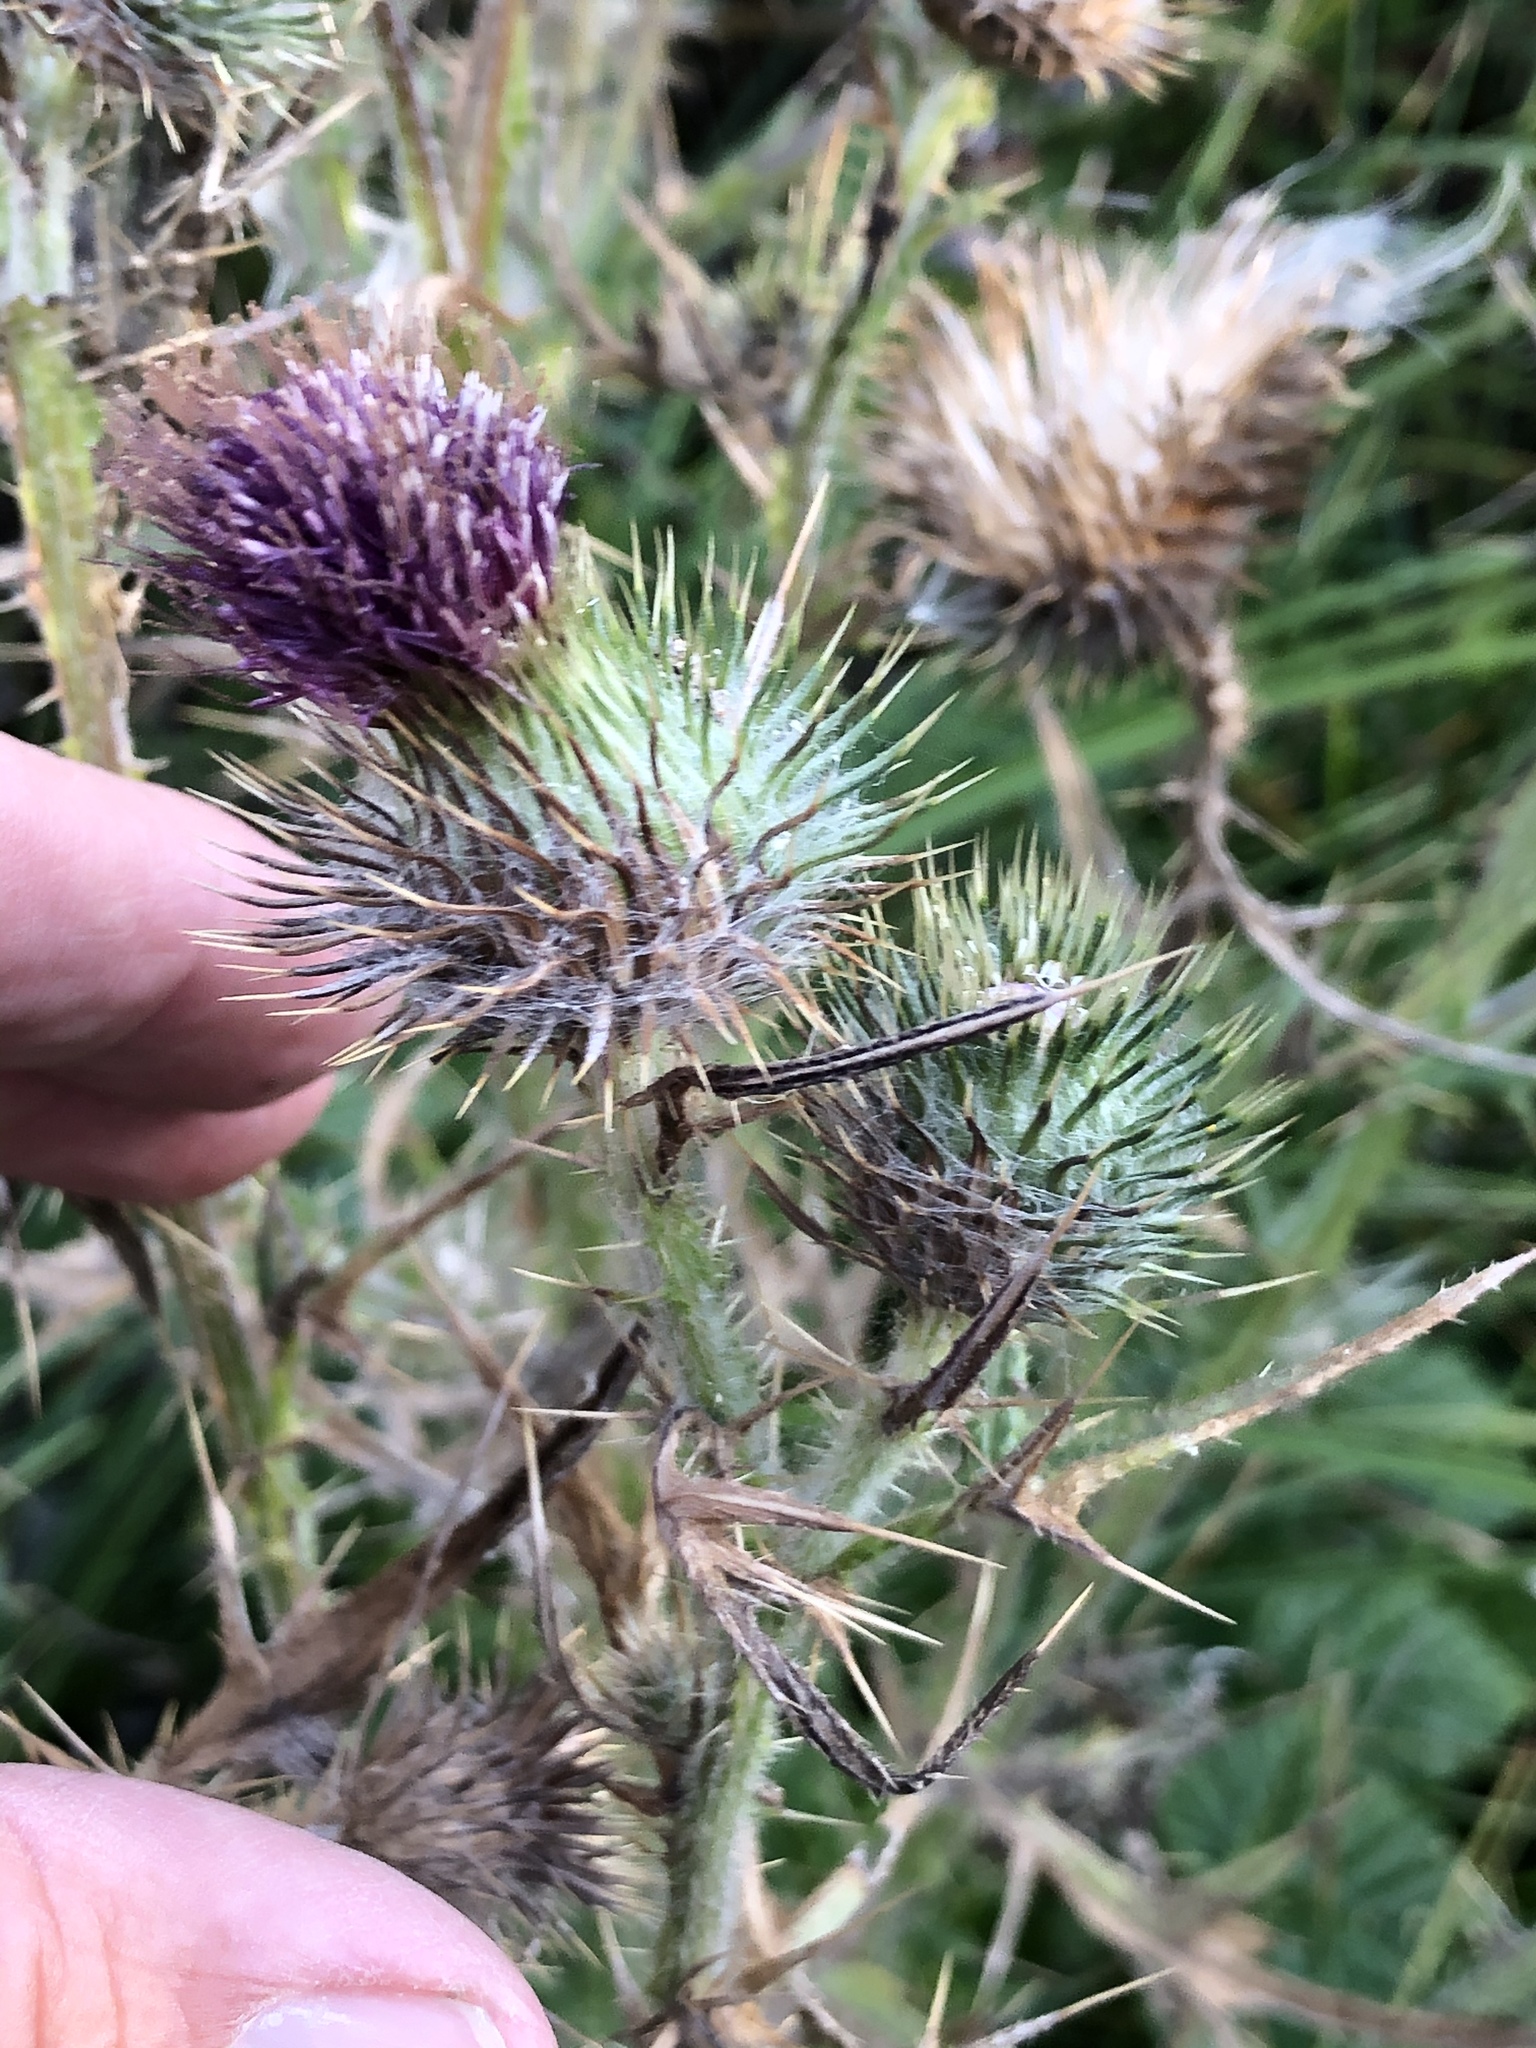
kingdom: Plantae
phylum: Tracheophyta
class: Magnoliopsida
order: Asterales
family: Asteraceae
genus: Cirsium
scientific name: Cirsium vulgare
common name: Bull thistle
